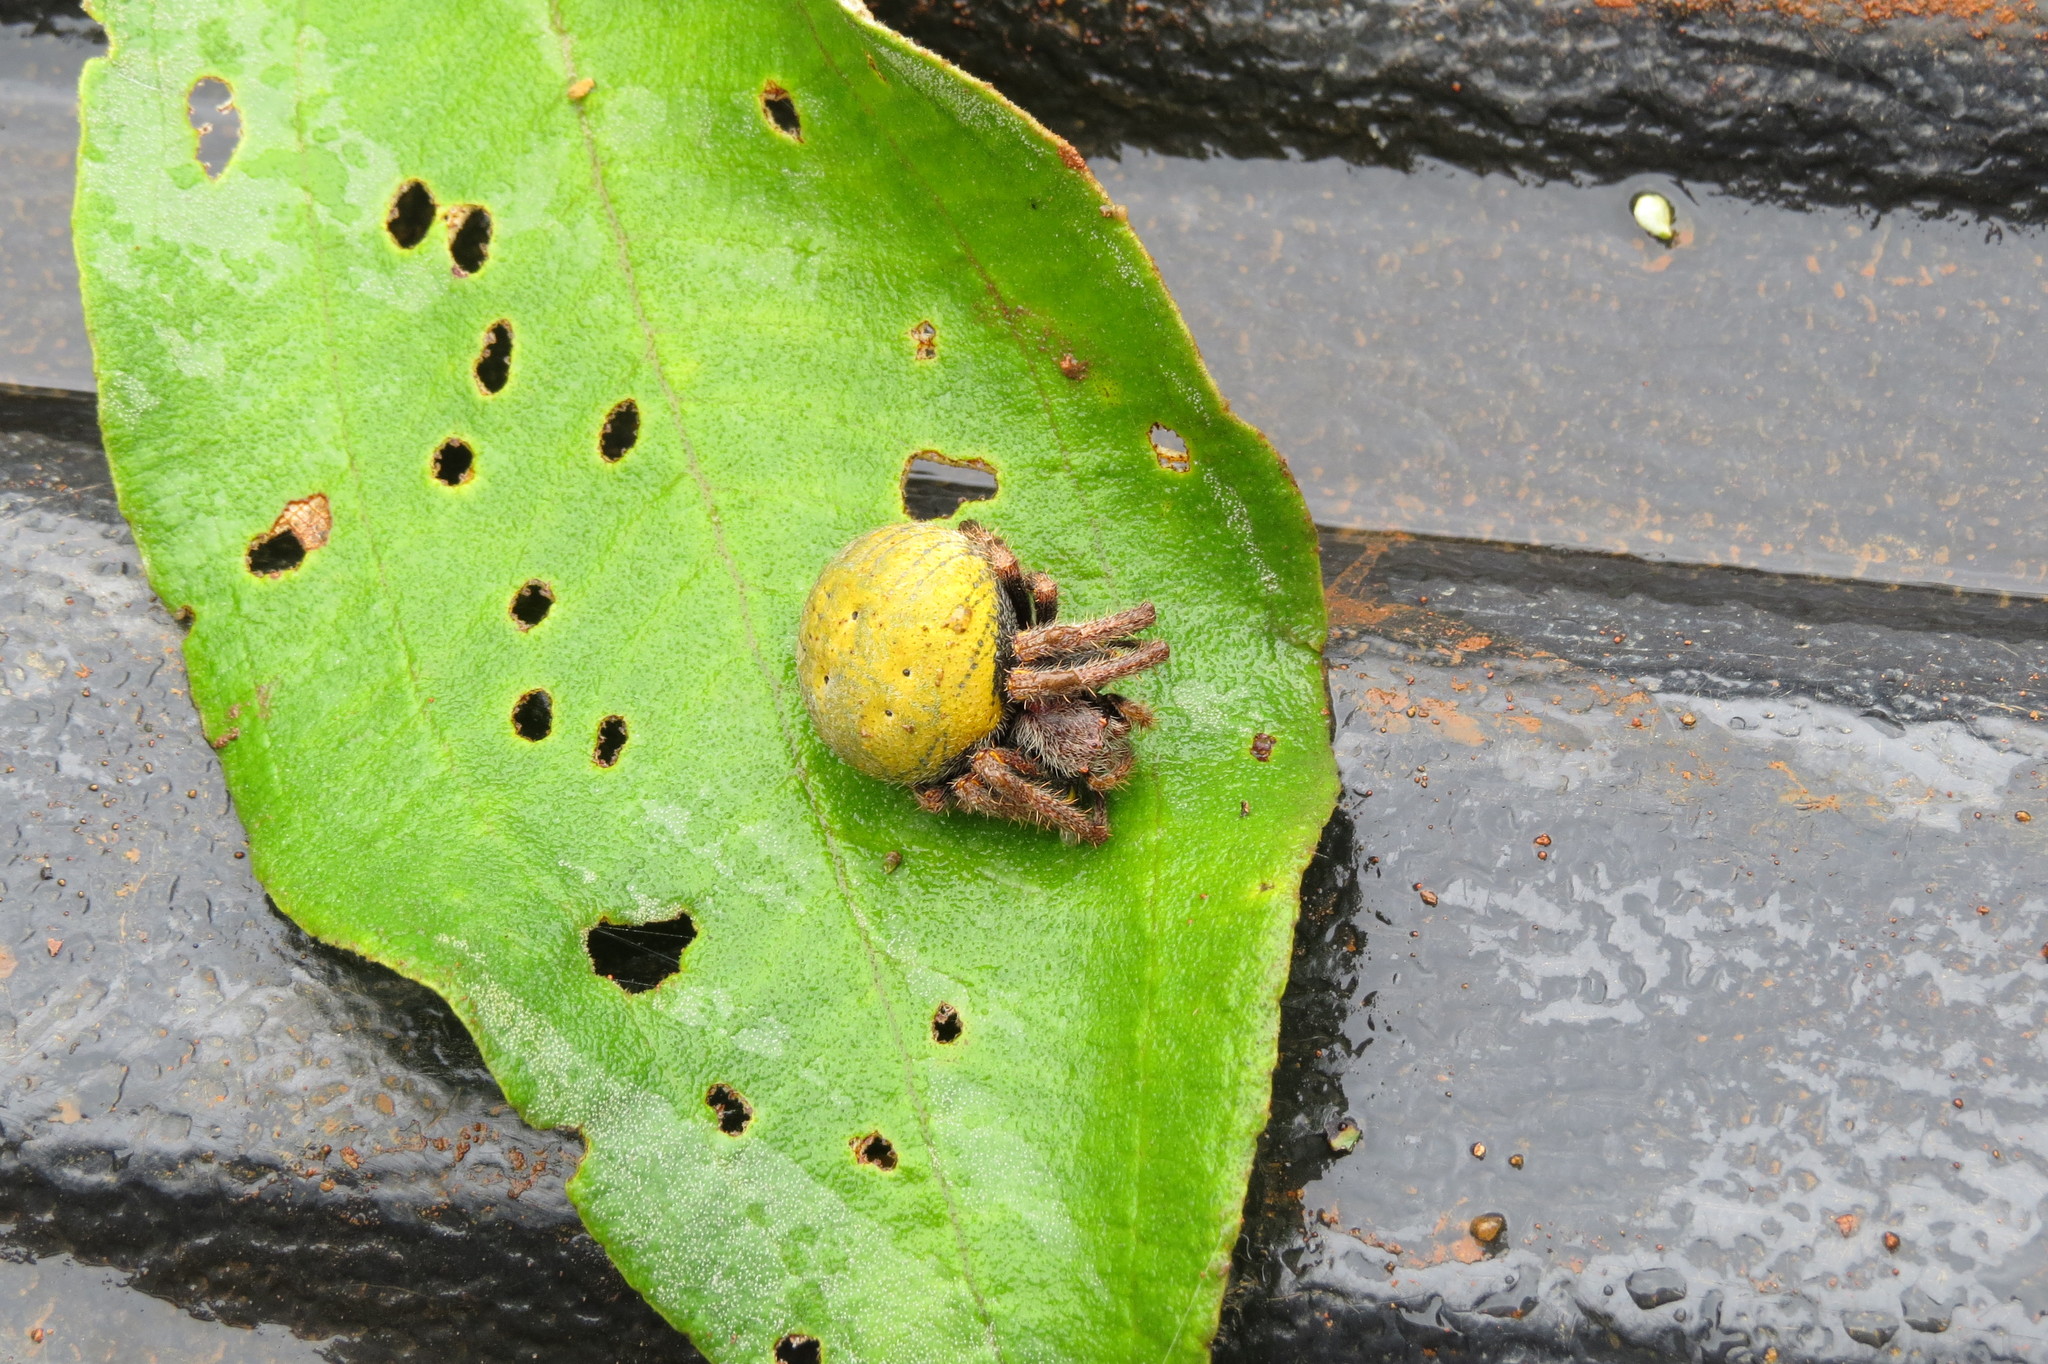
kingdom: Animalia
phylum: Arthropoda
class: Arachnida
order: Araneae
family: Araneidae
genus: Parawixia
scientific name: Parawixia bistriata
